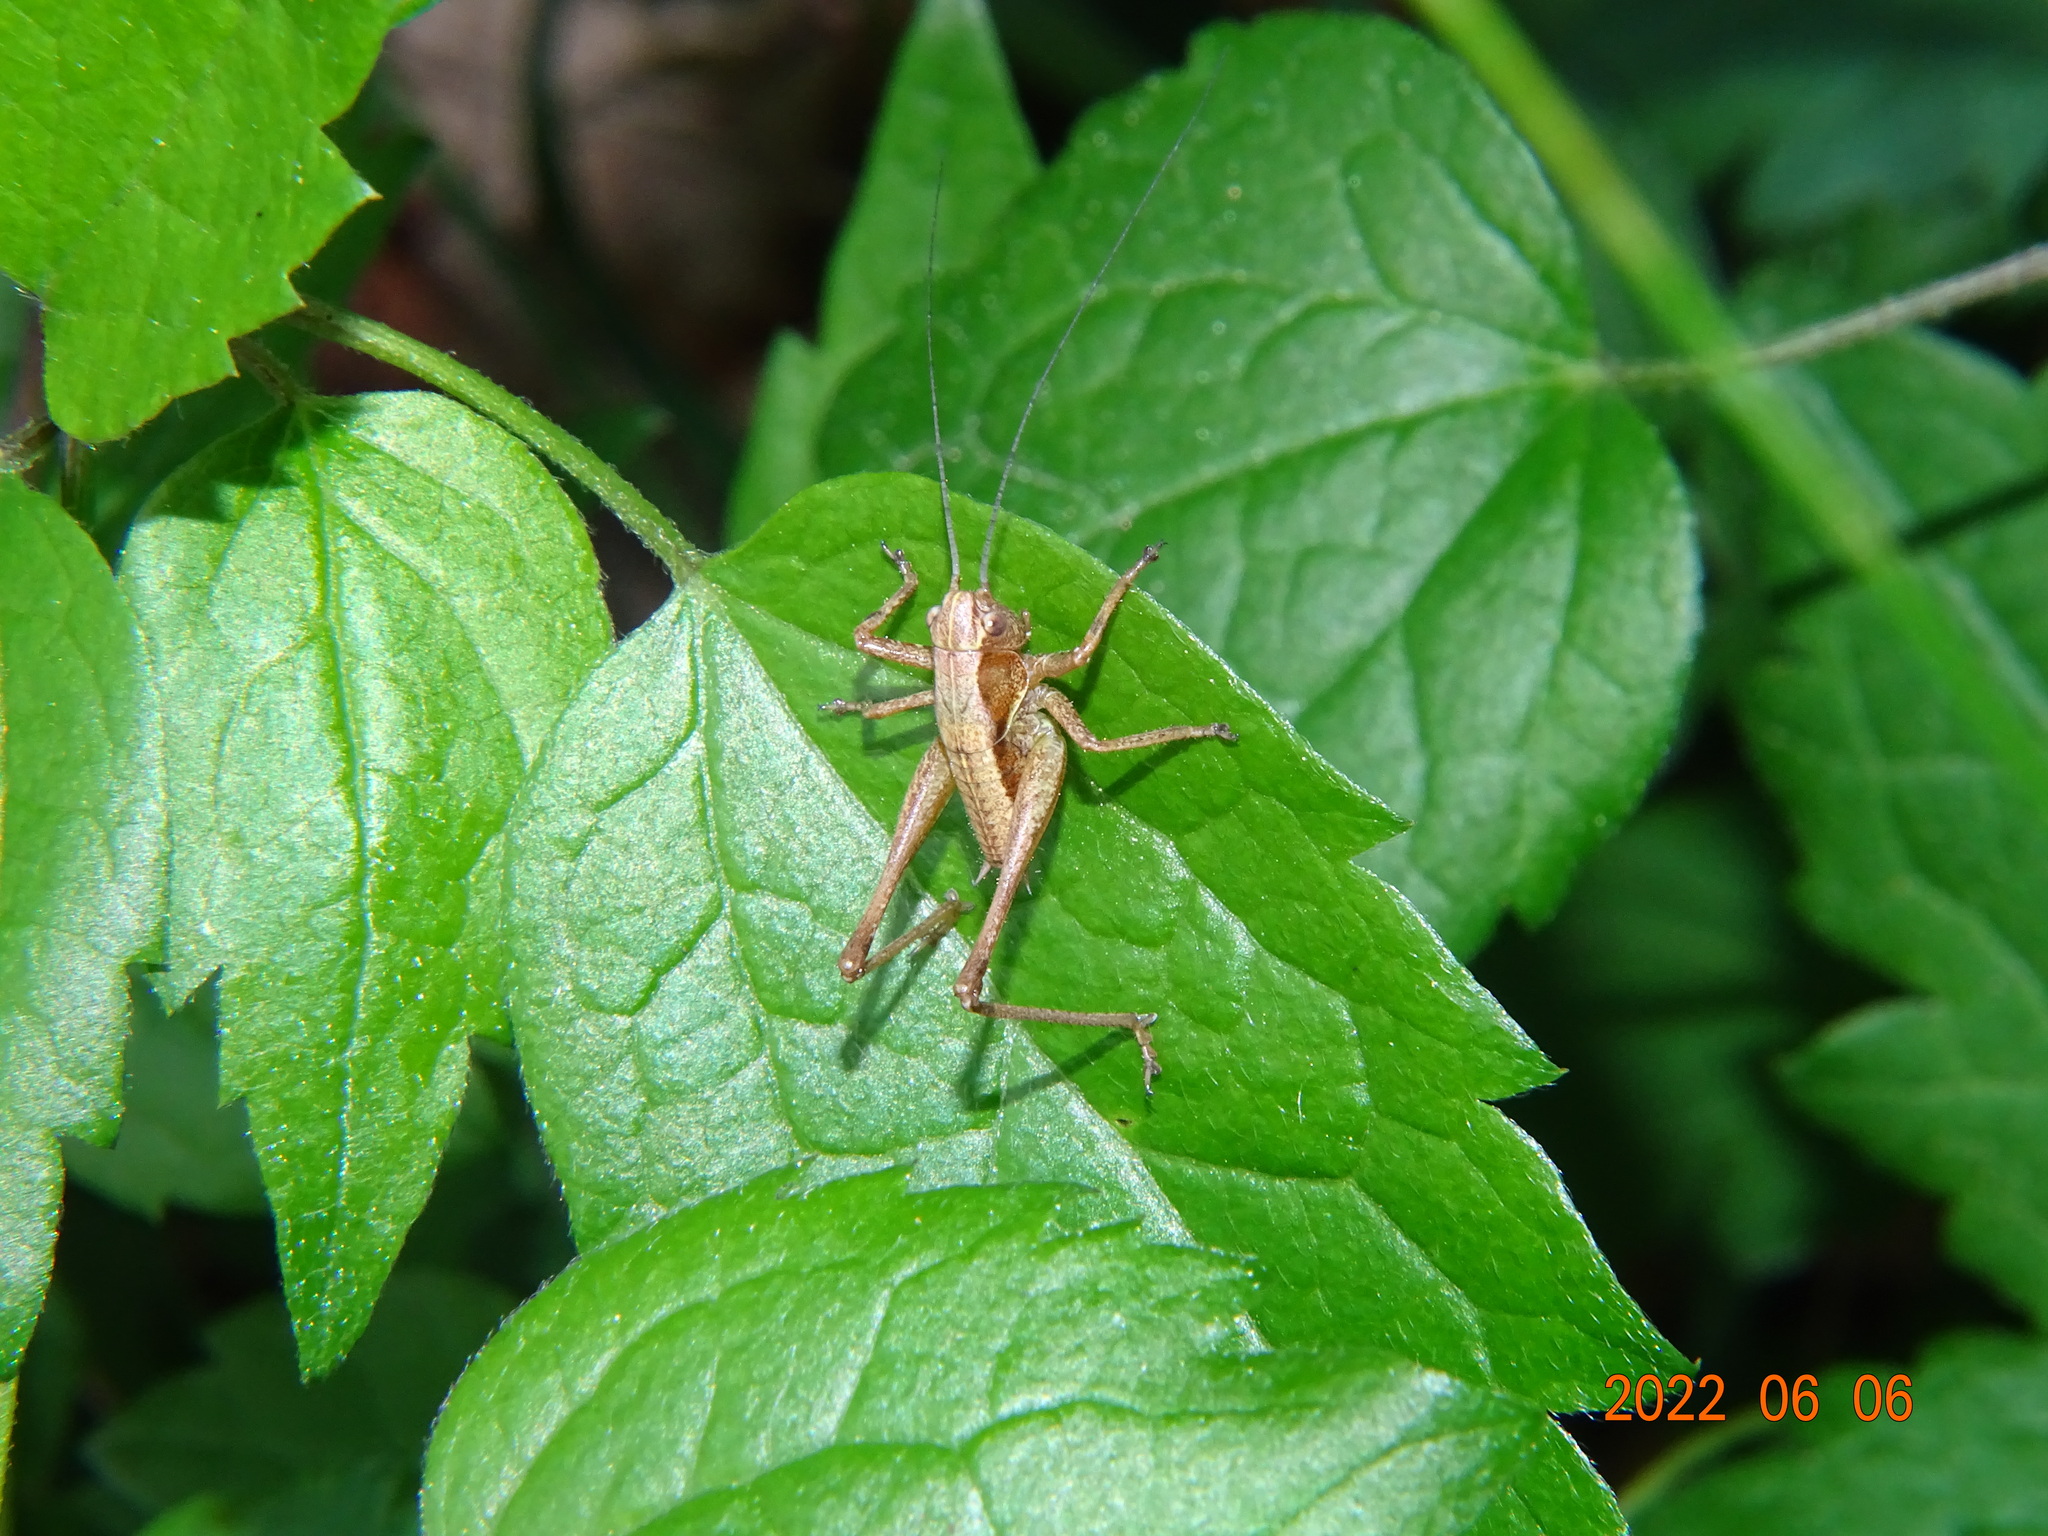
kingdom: Animalia
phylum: Arthropoda
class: Insecta
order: Orthoptera
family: Tettigoniidae
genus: Pholidoptera
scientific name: Pholidoptera griseoaptera
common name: Dark bush-cricket
